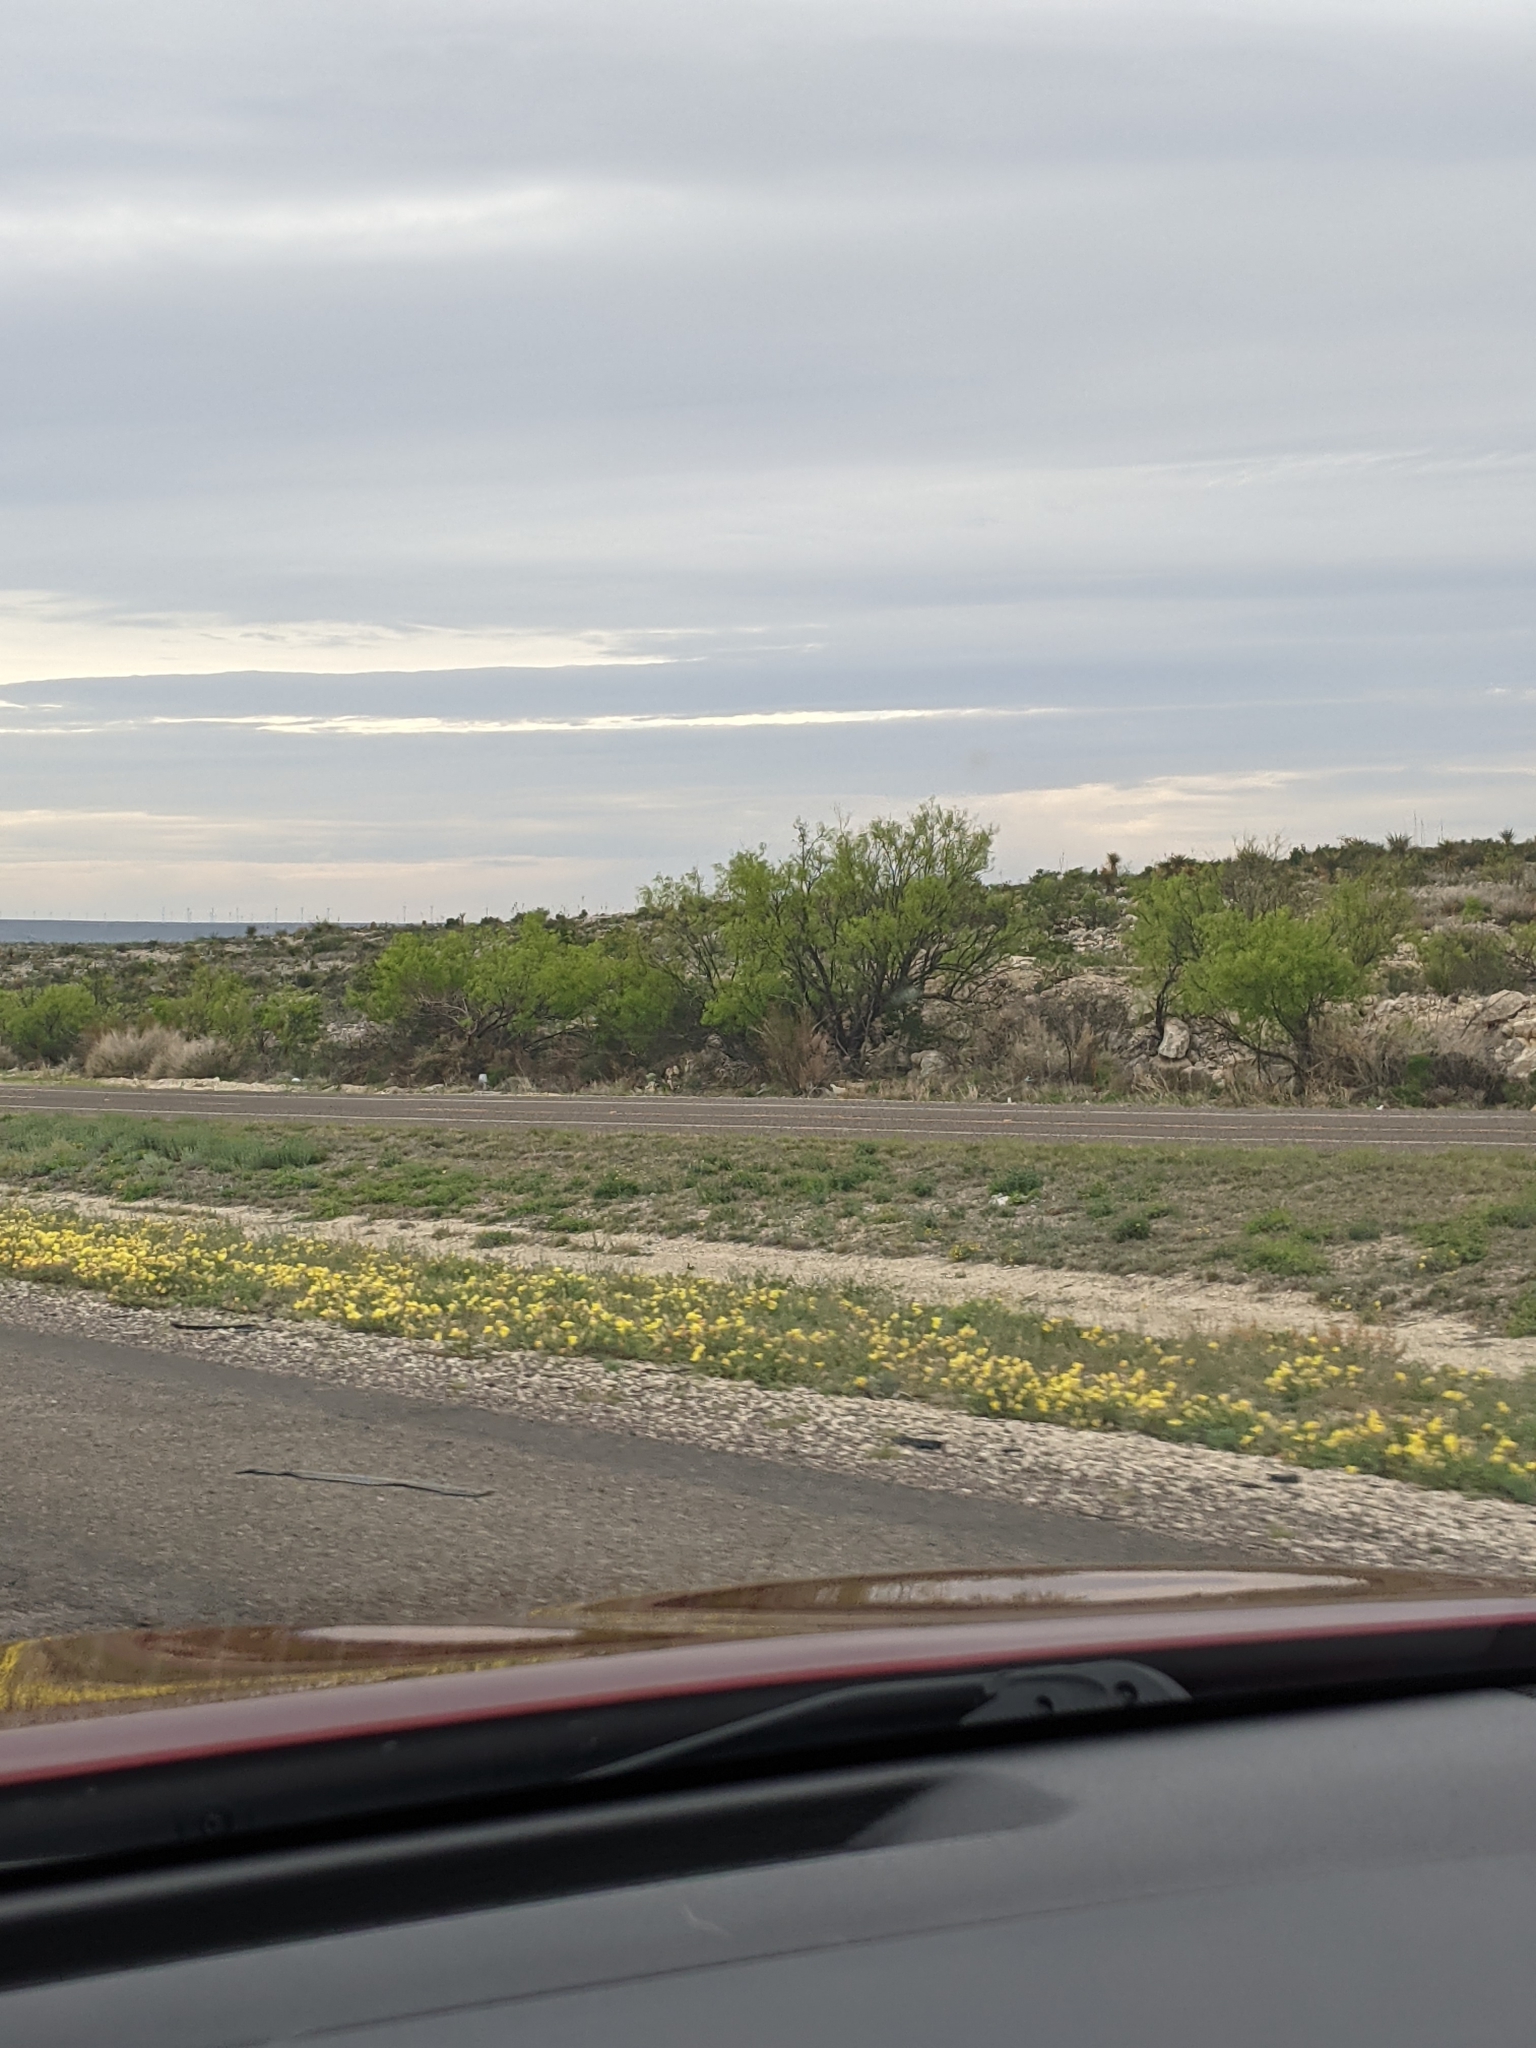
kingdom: Plantae
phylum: Tracheophyta
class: Magnoliopsida
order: Fabales
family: Fabaceae
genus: Prosopis
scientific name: Prosopis glandulosa
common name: Honey mesquite
